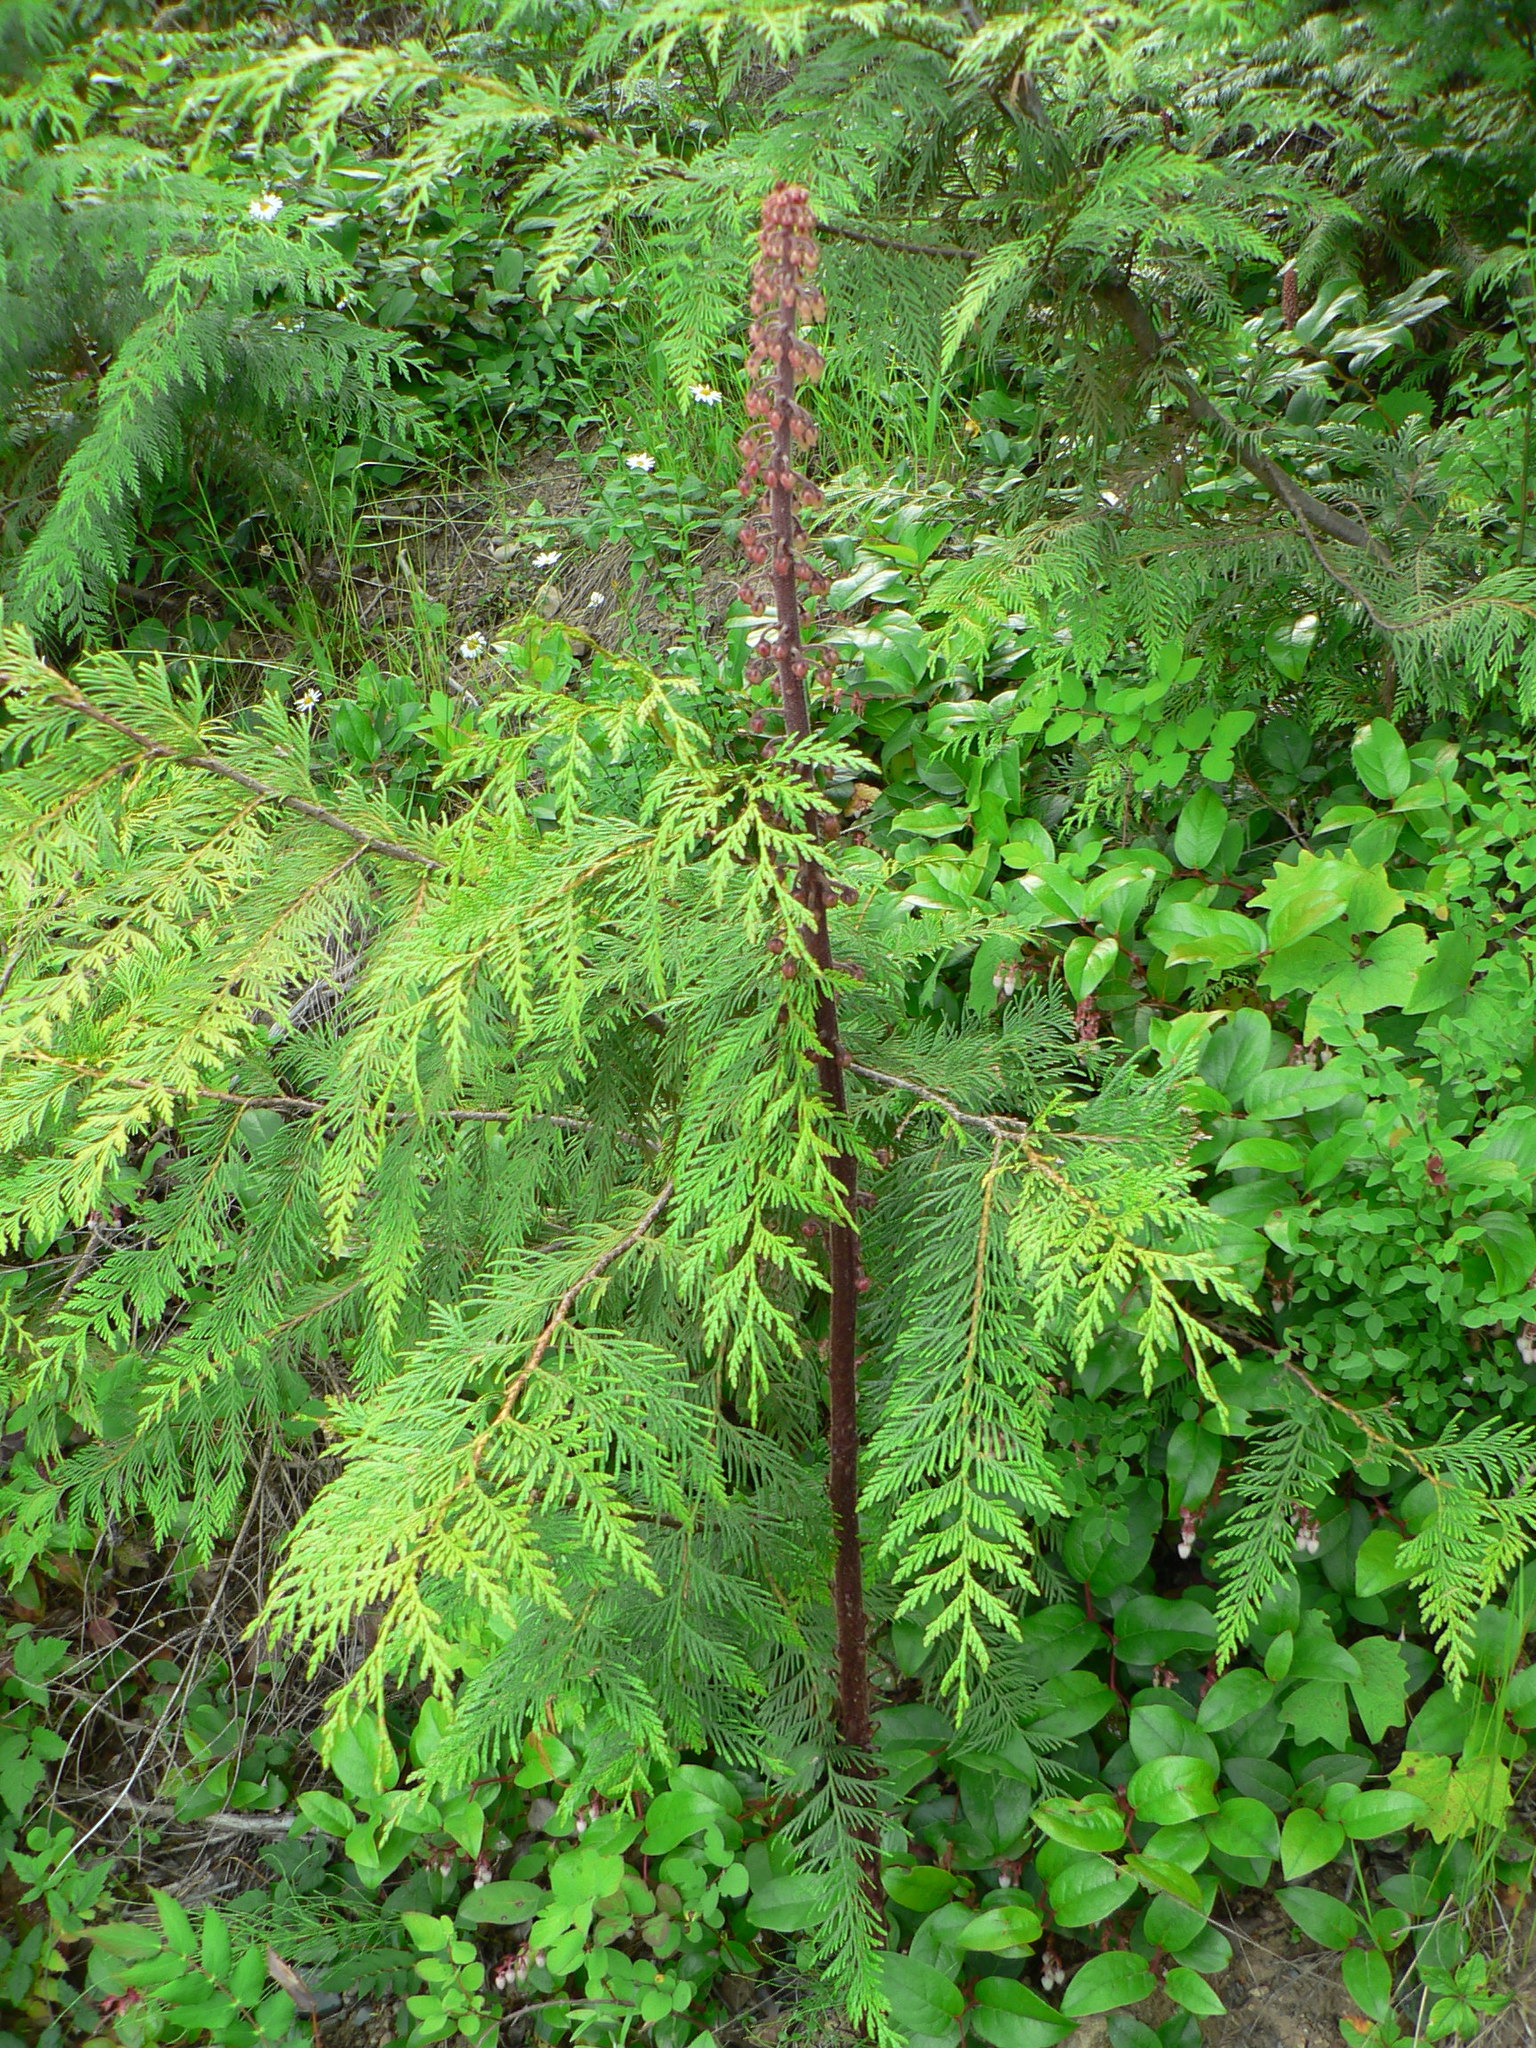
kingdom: Plantae
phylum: Tracheophyta
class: Magnoliopsida
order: Ericales
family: Ericaceae
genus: Pterospora
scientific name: Pterospora andromedea
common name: Giant bird's-nest
